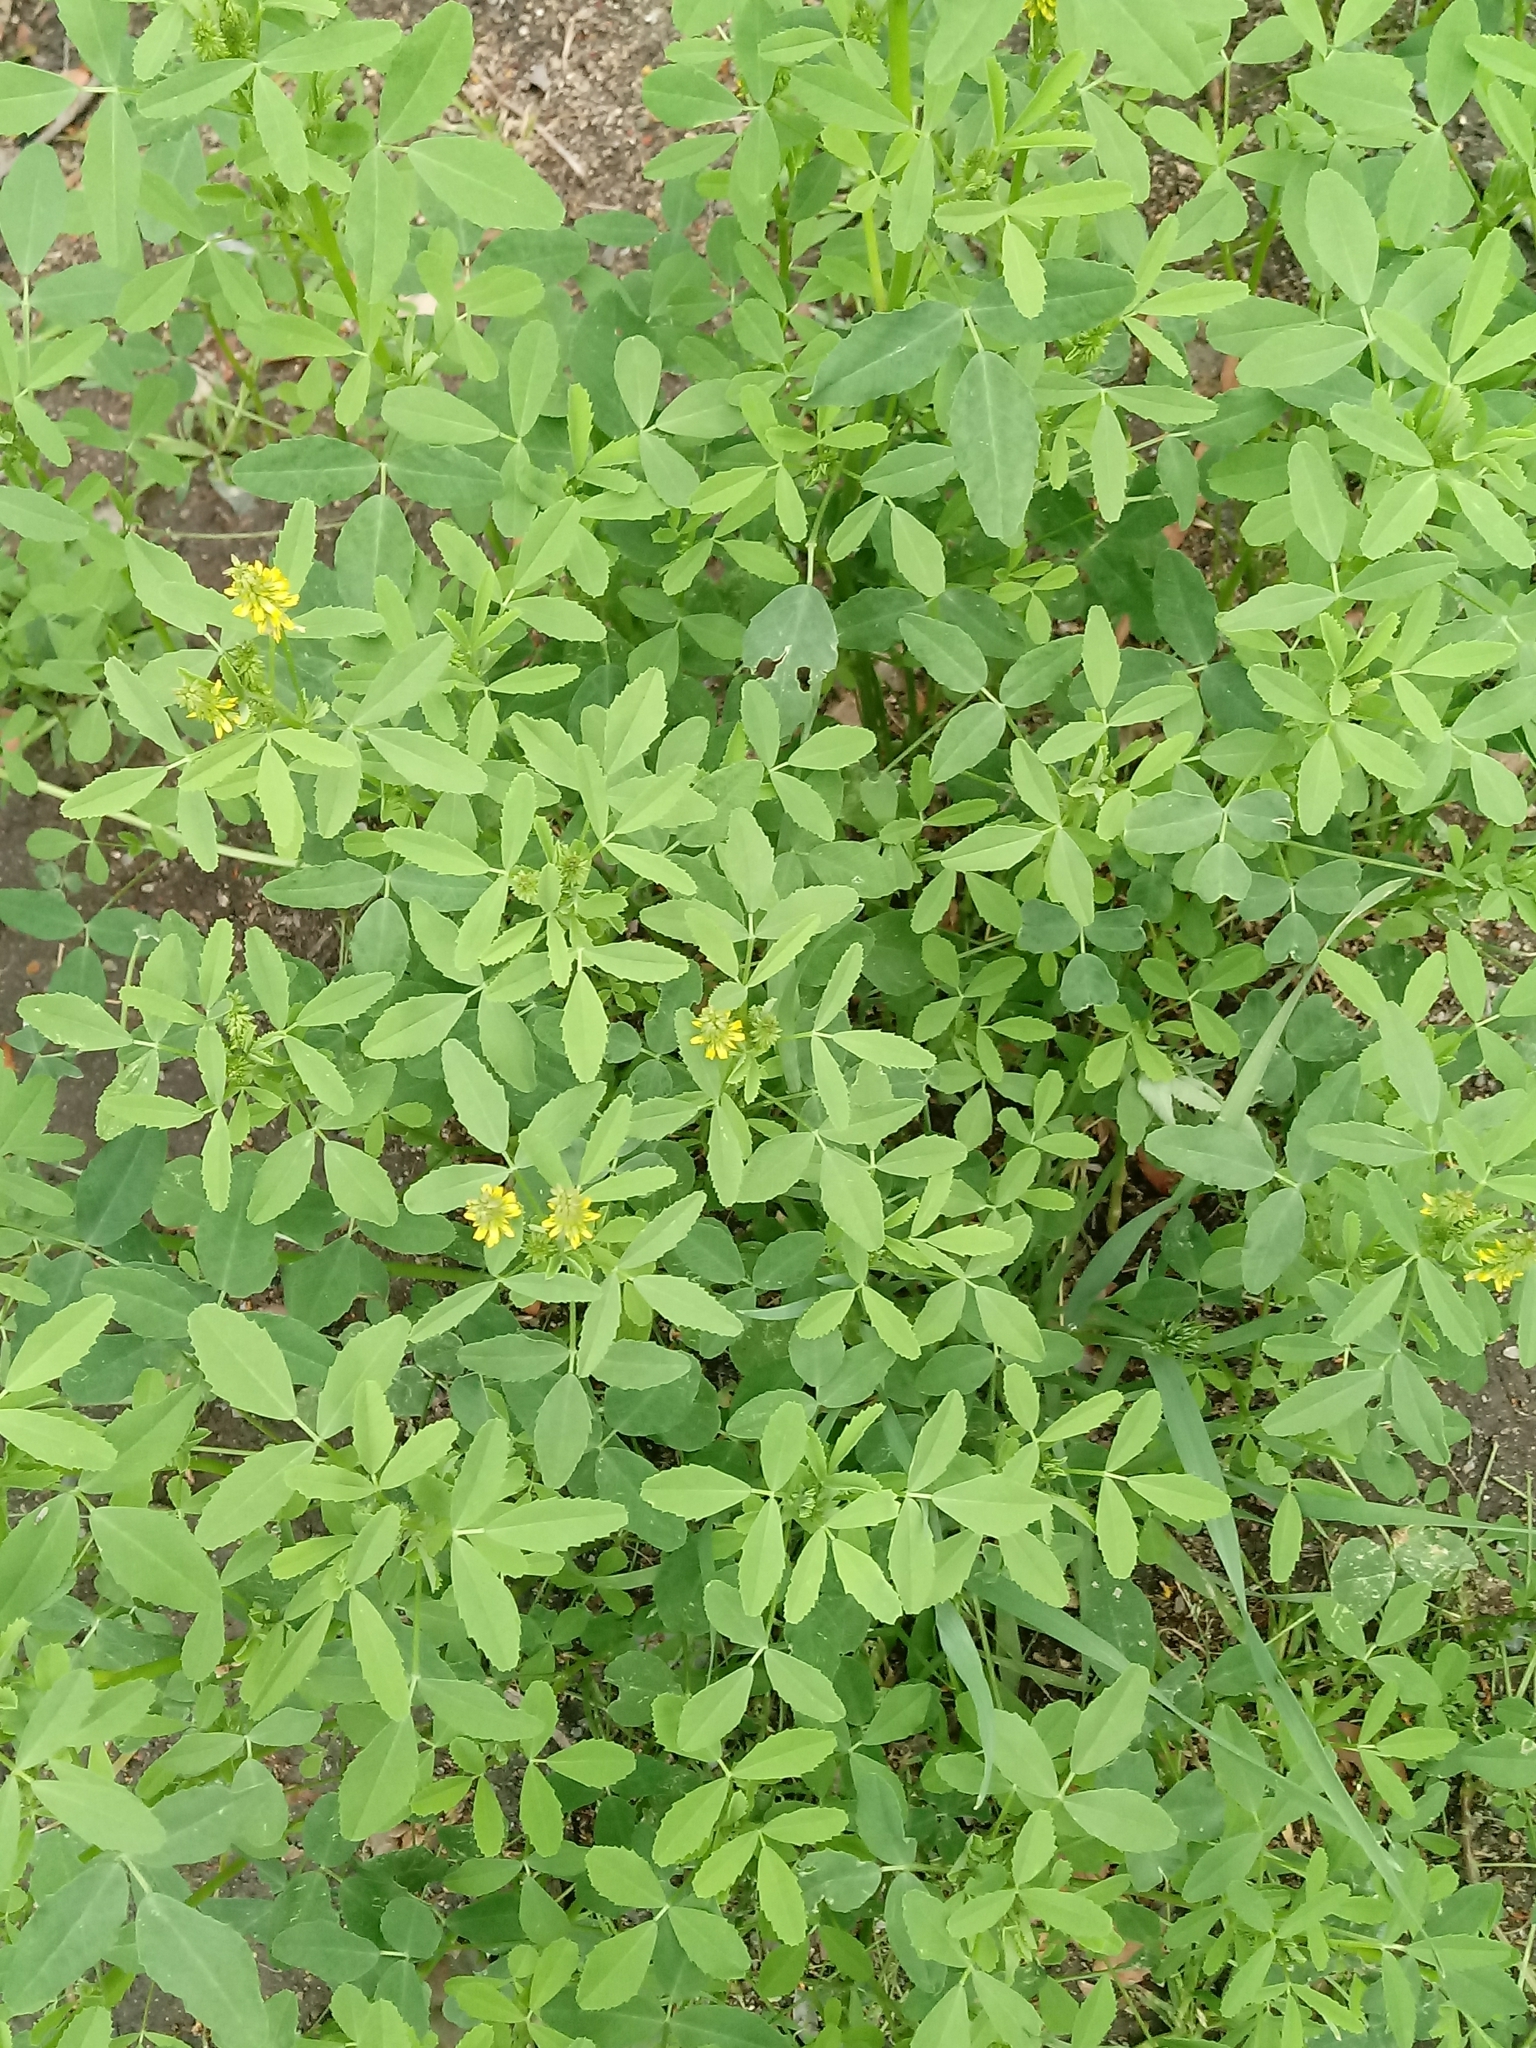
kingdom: Plantae
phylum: Tracheophyta
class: Magnoliopsida
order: Fabales
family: Fabaceae
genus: Melilotus
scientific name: Melilotus indicus
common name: Small melilot
